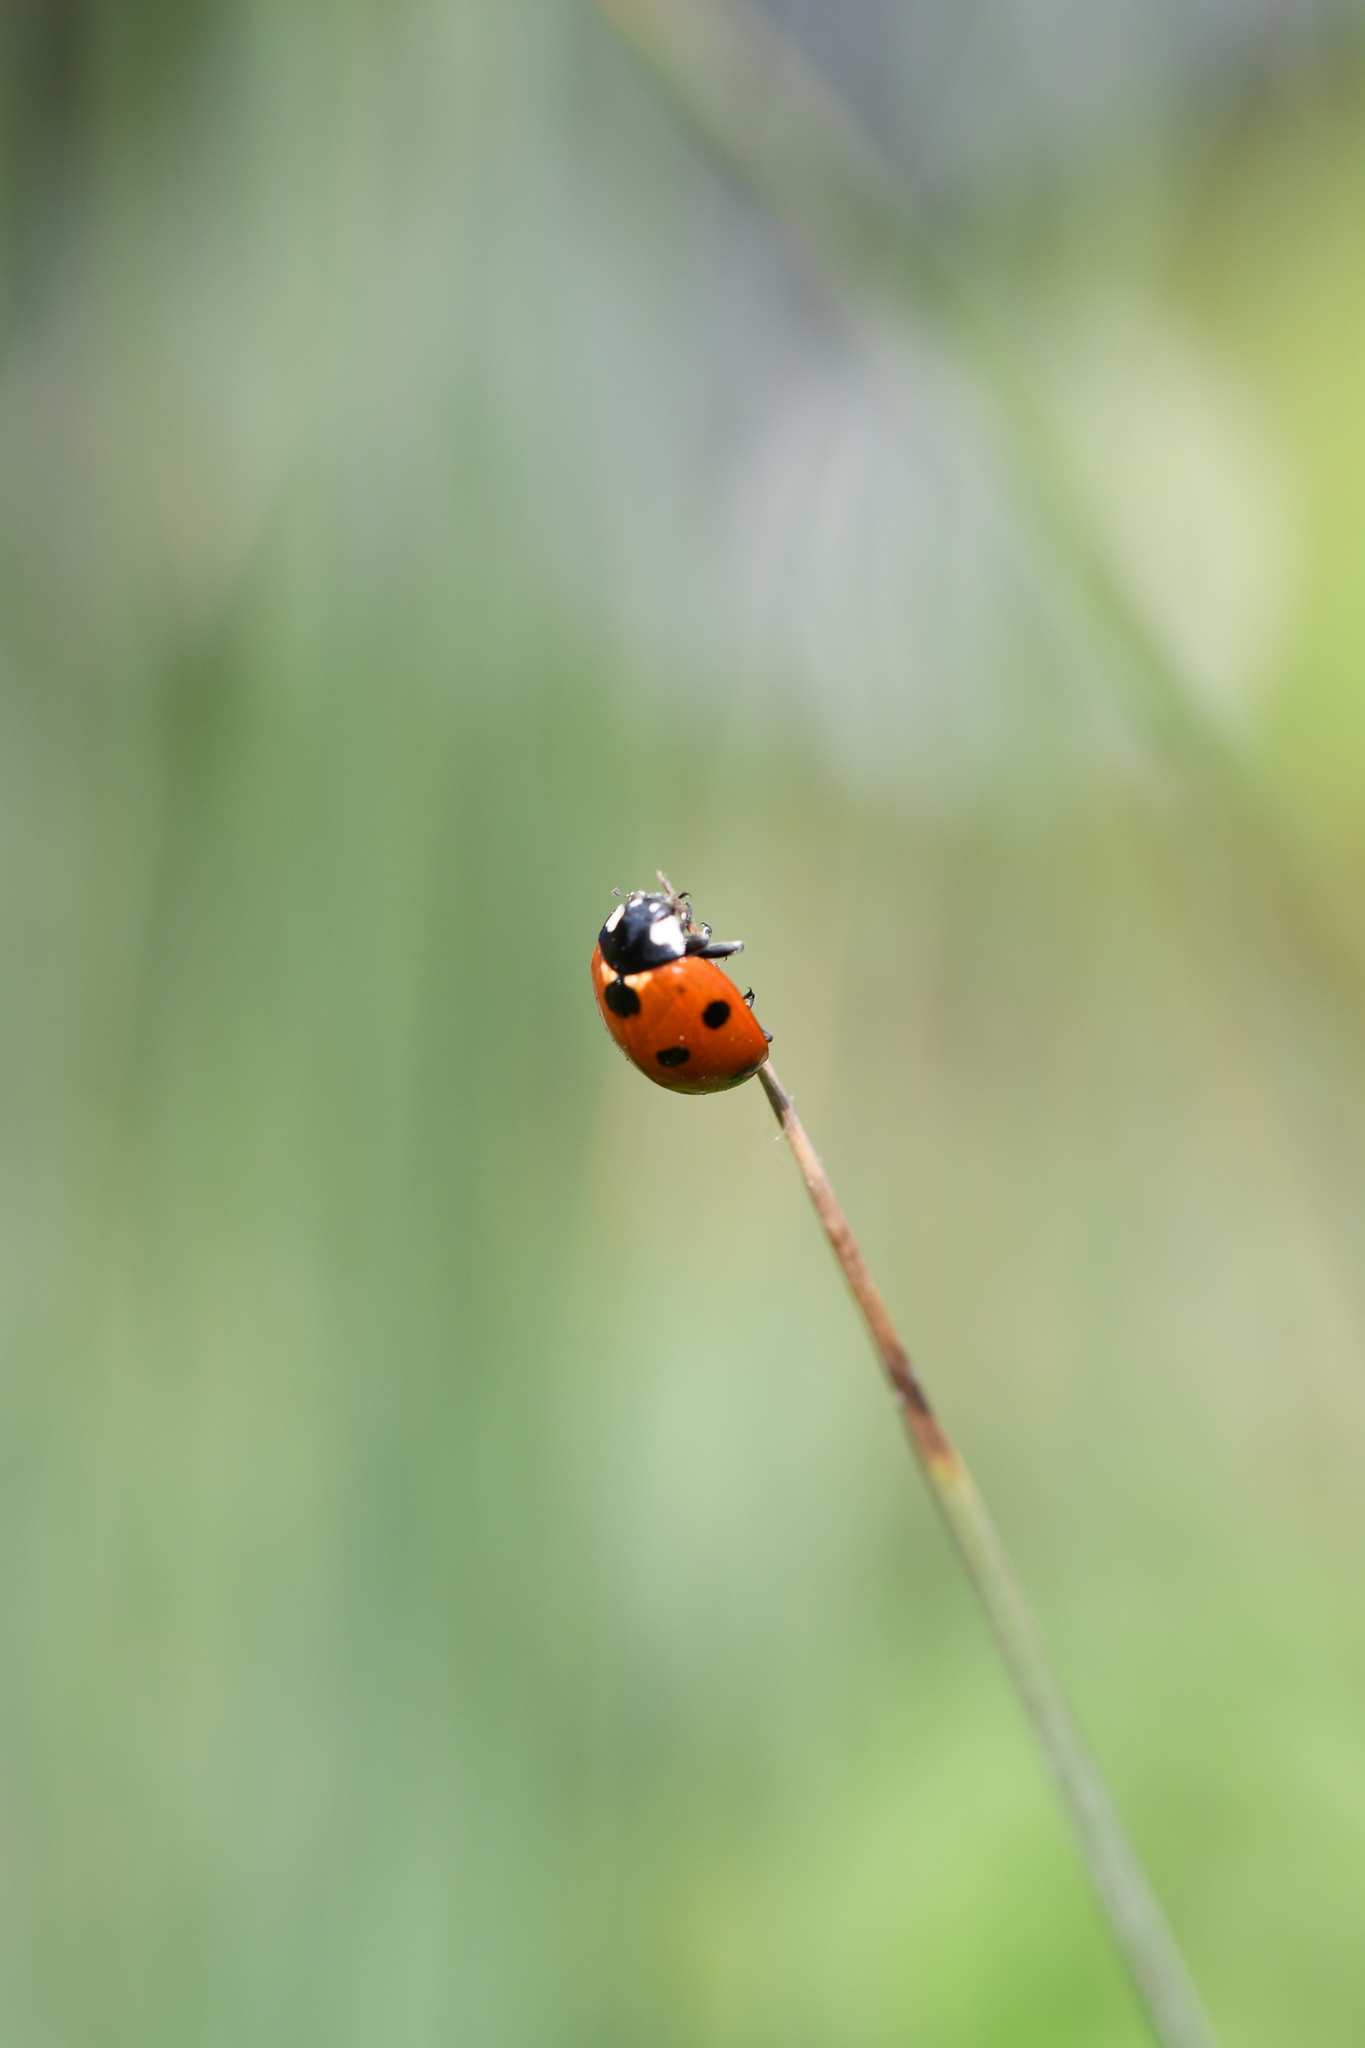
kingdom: Animalia
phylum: Arthropoda
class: Insecta
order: Coleoptera
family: Coccinellidae
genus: Coccinella
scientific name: Coccinella septempunctata
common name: Sevenspotted lady beetle
